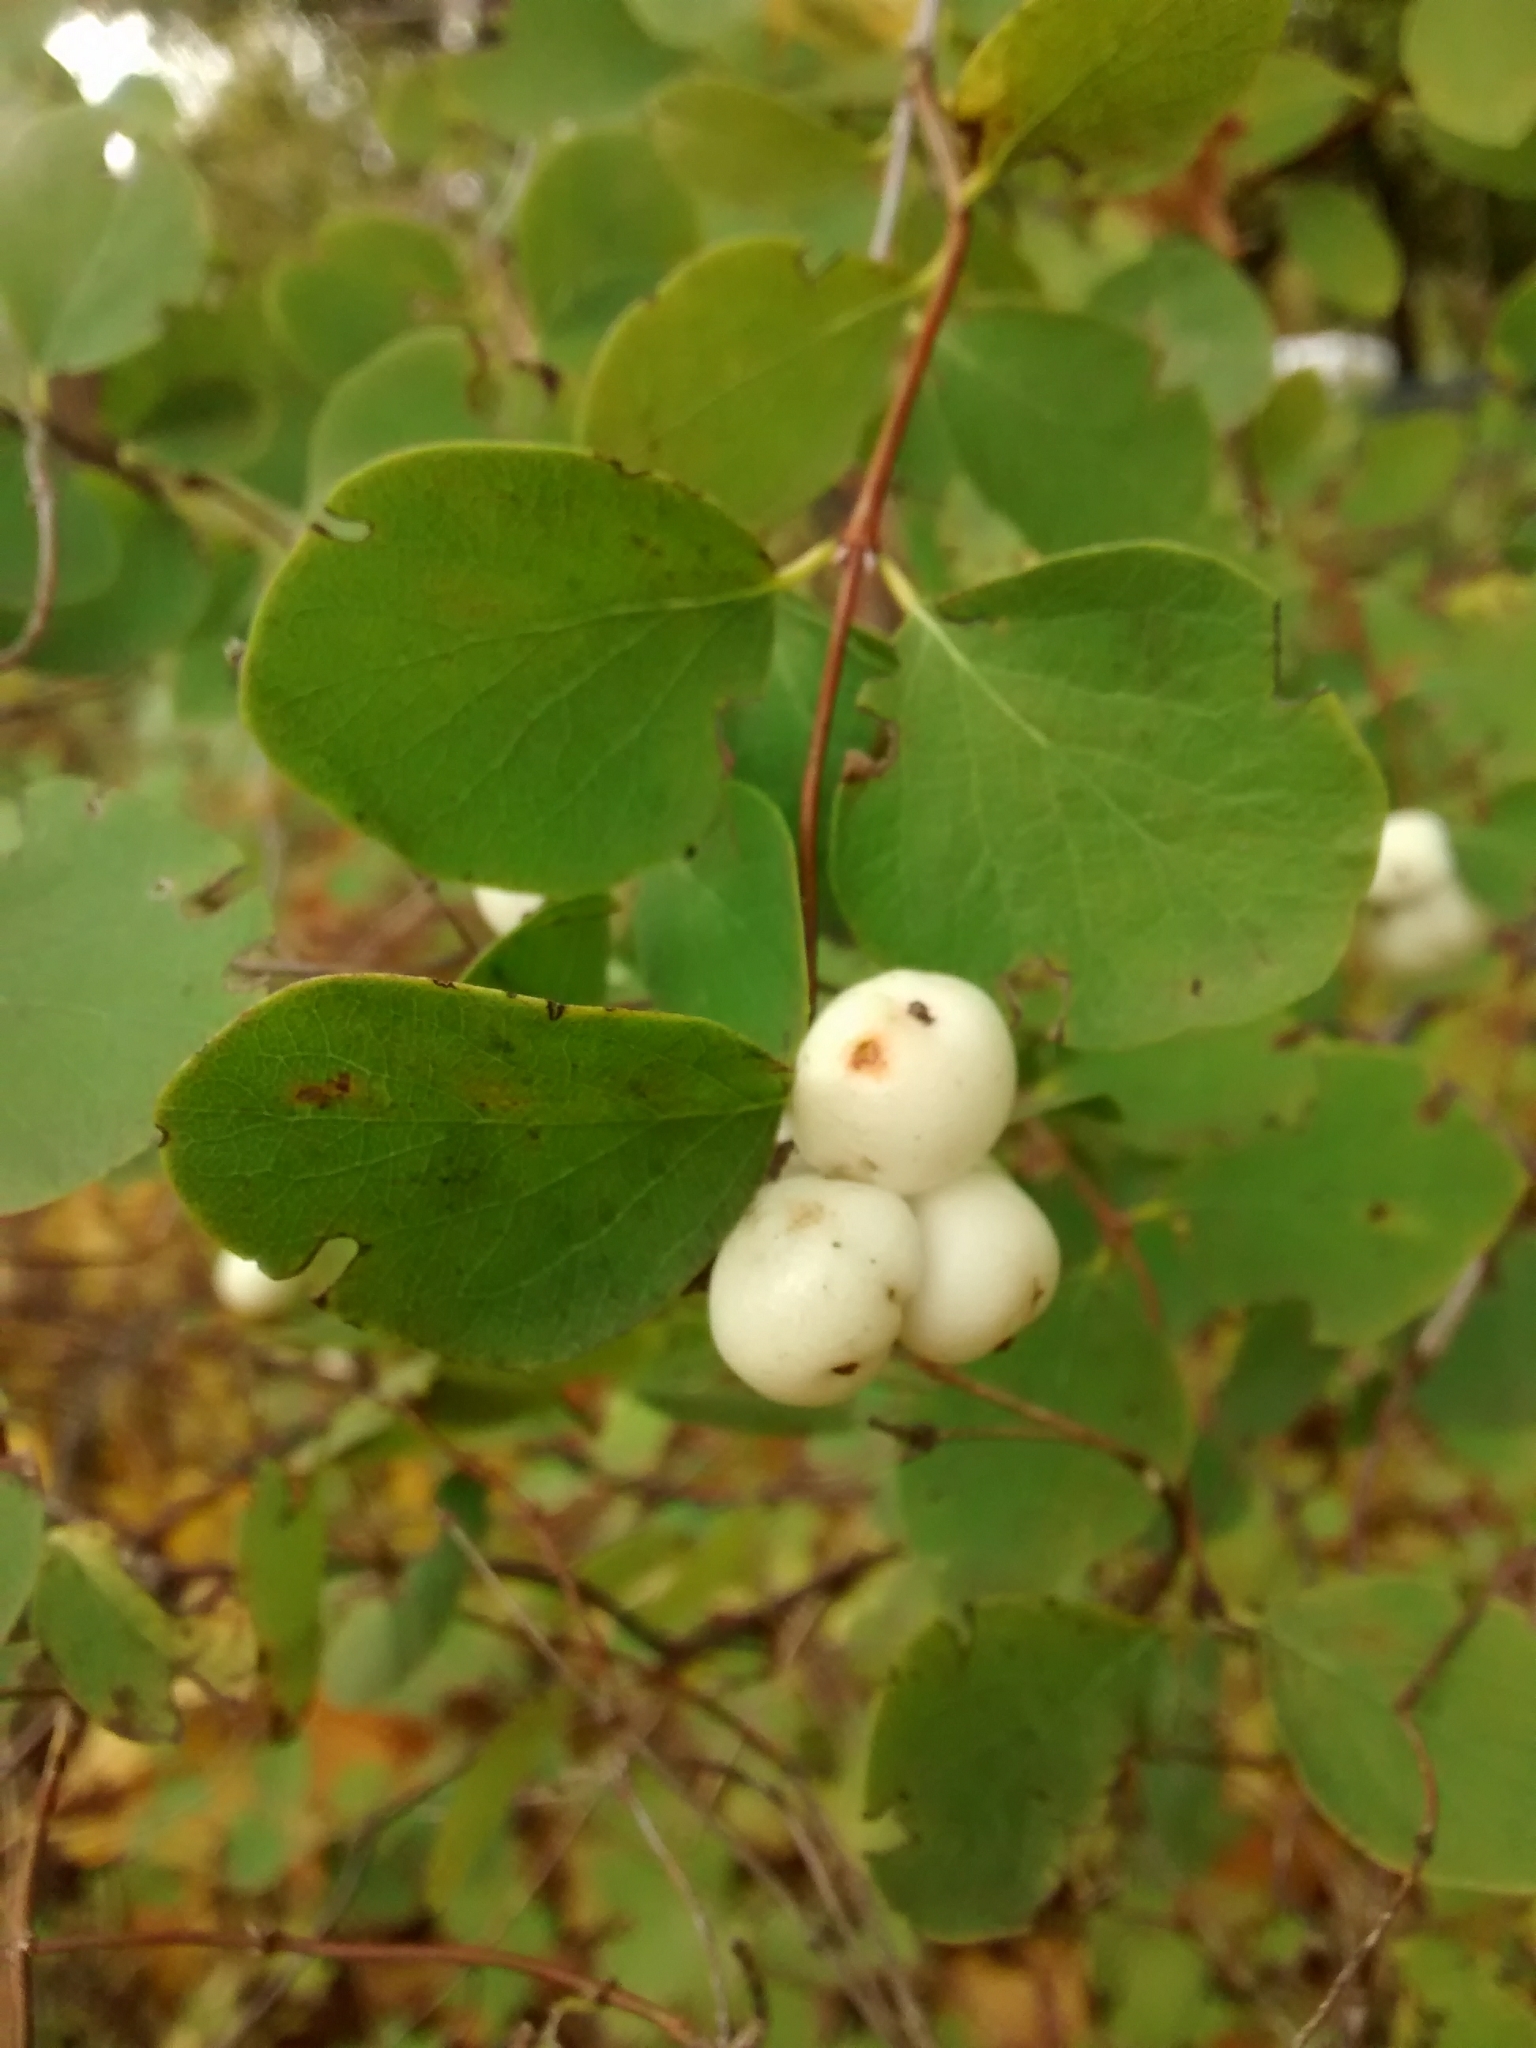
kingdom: Plantae
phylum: Tracheophyta
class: Magnoliopsida
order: Dipsacales
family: Caprifoliaceae
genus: Symphoricarpos
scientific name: Symphoricarpos albus
